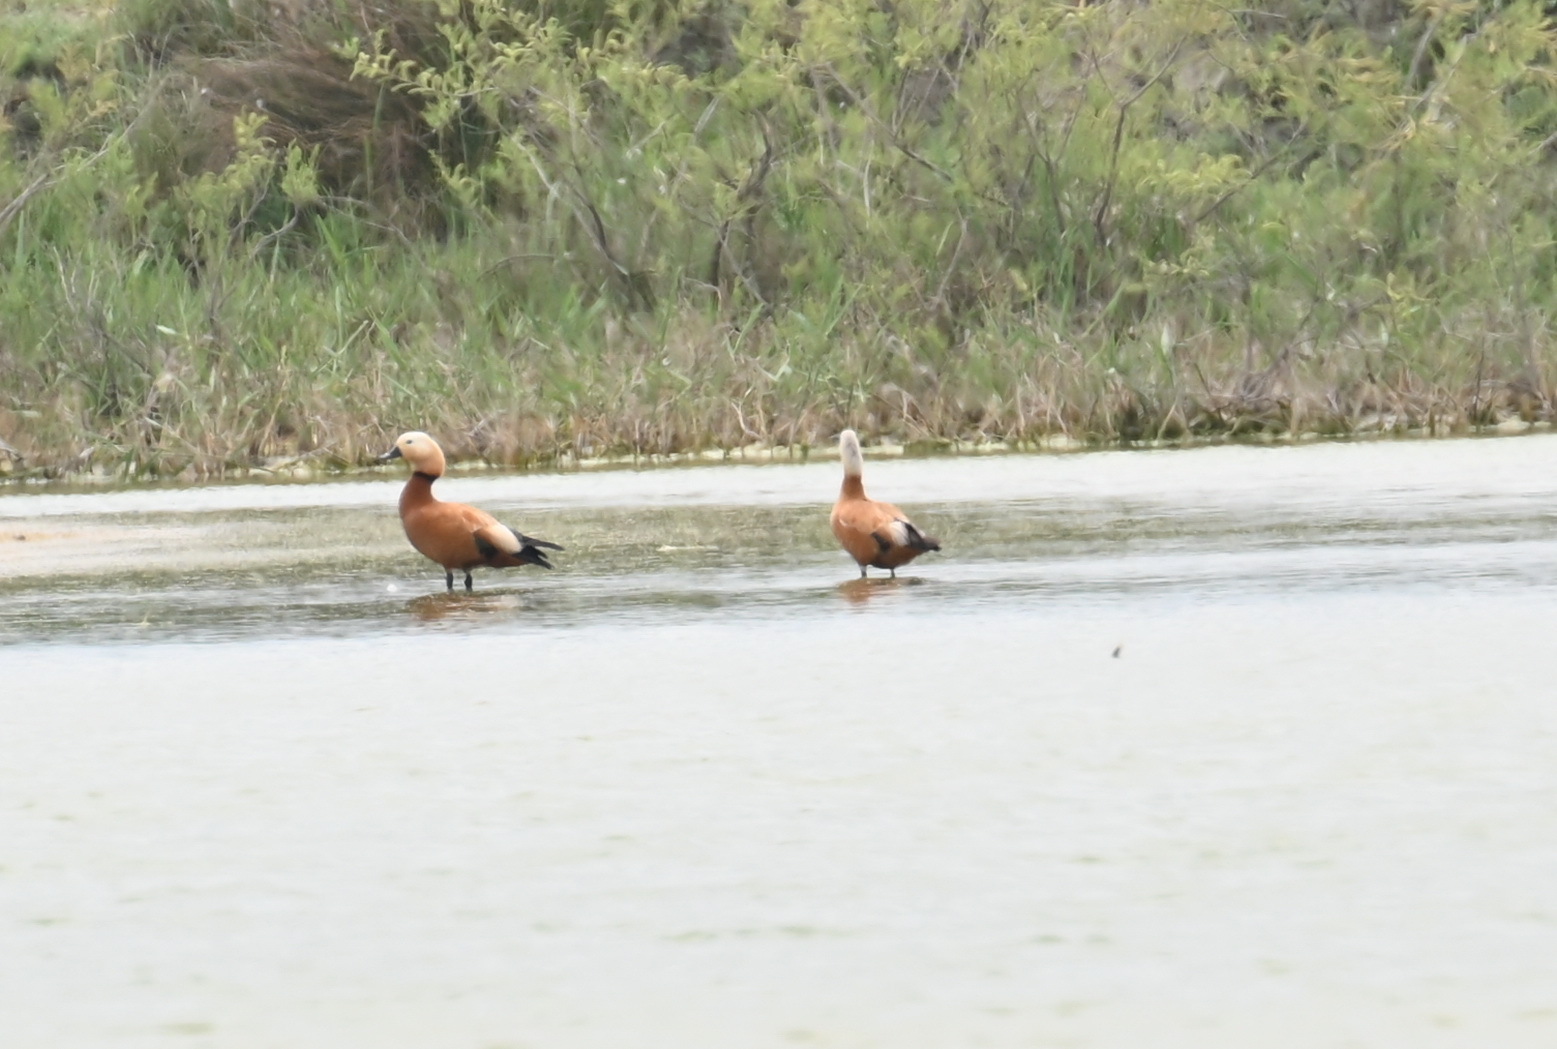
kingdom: Animalia
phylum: Chordata
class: Aves
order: Anseriformes
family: Anatidae
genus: Tadorna
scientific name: Tadorna ferruginea
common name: Ruddy shelduck
